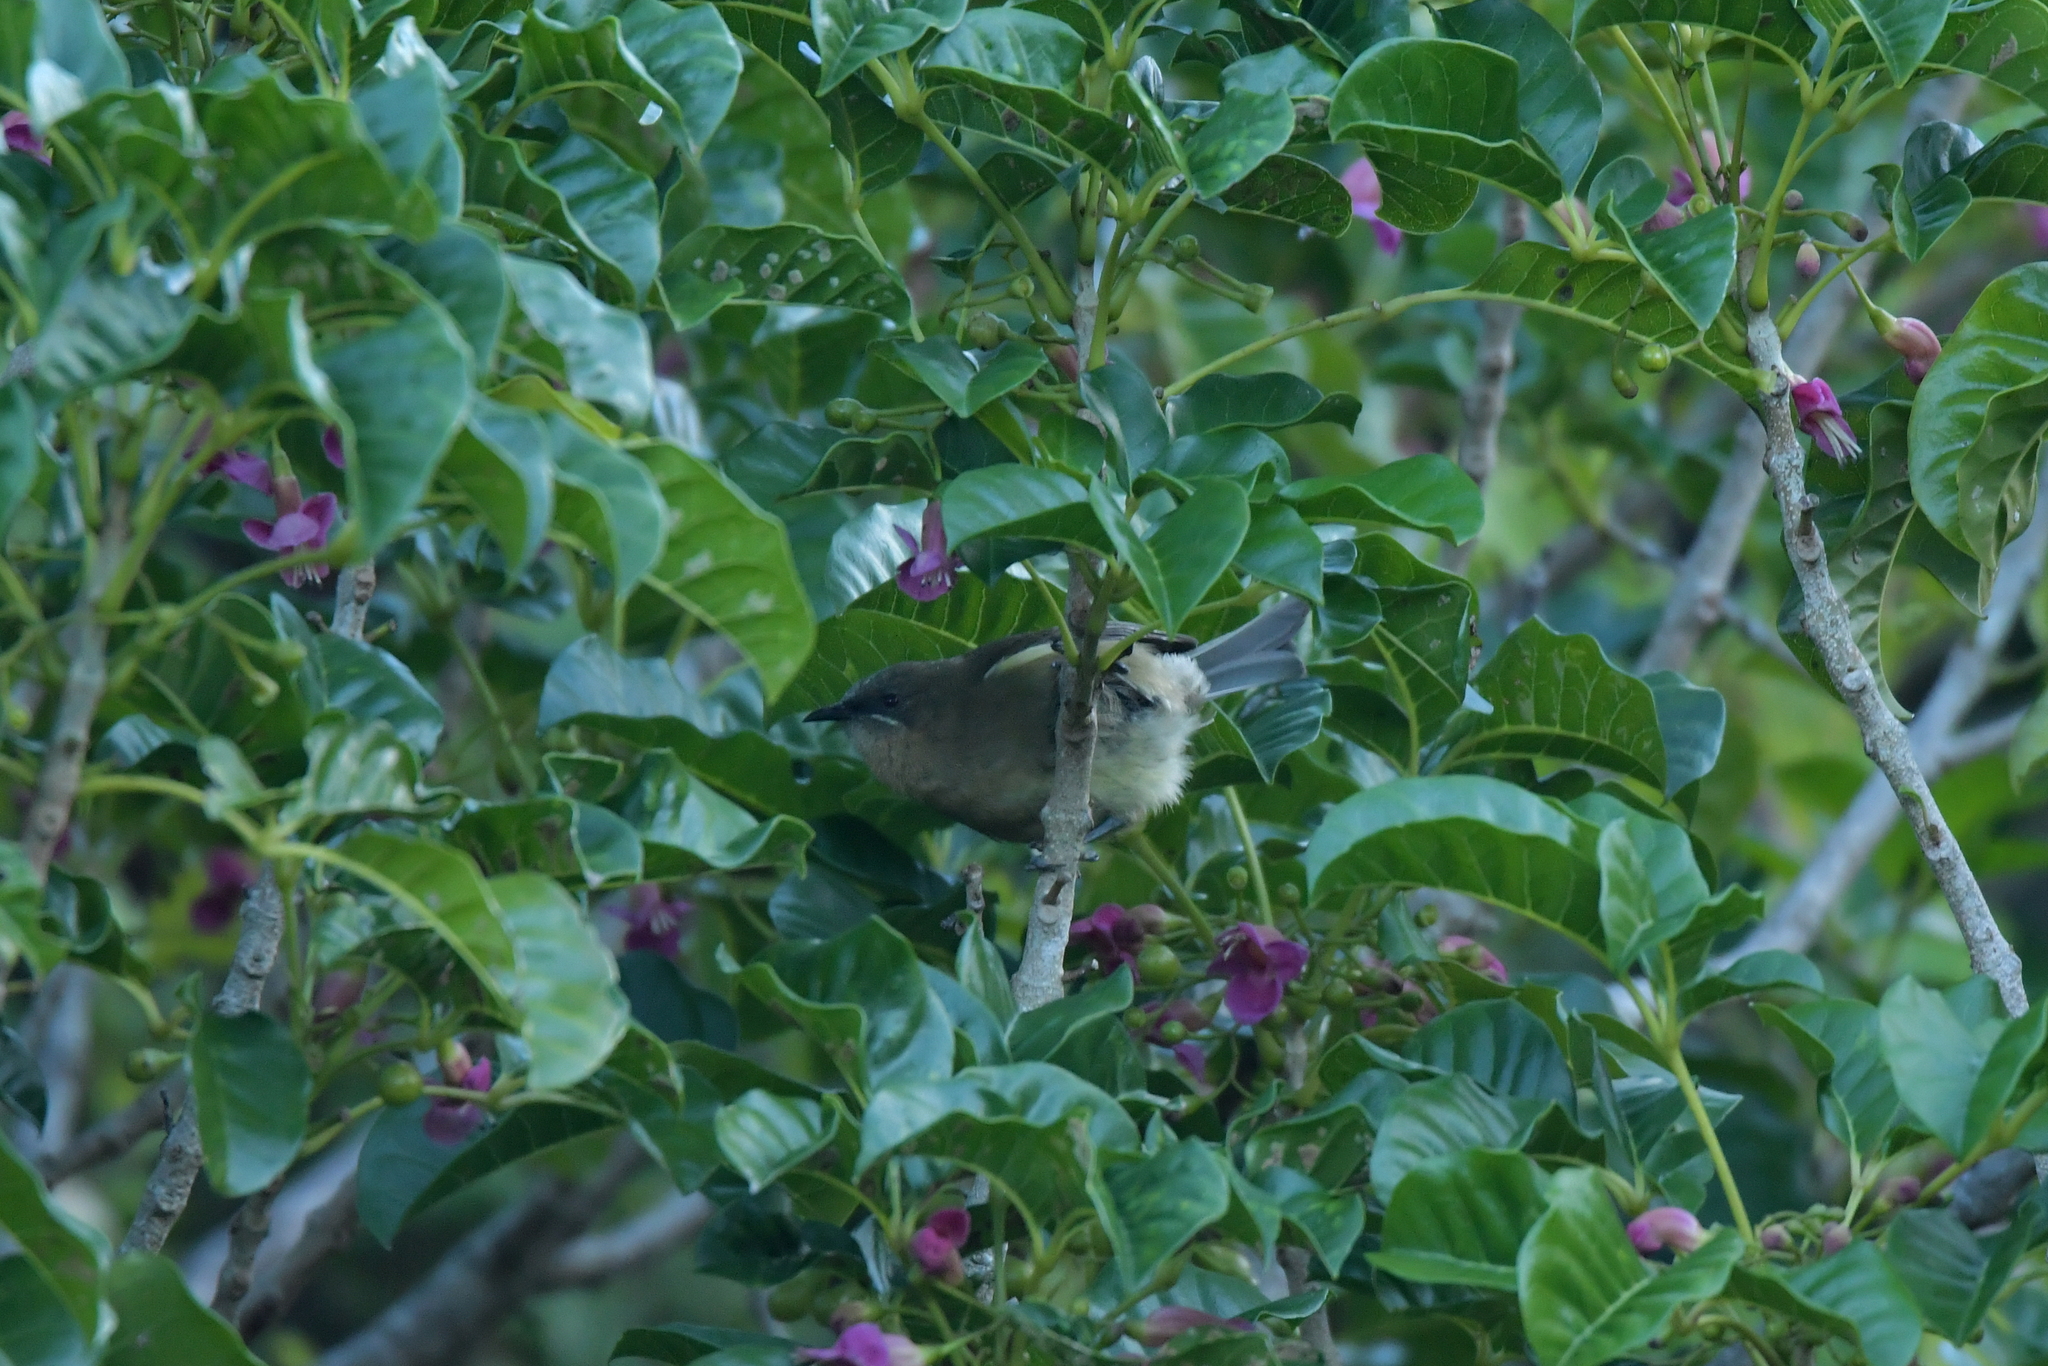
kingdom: Animalia
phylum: Chordata
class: Aves
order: Passeriformes
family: Meliphagidae
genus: Anthornis
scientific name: Anthornis melanura
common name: New zealand bellbird
